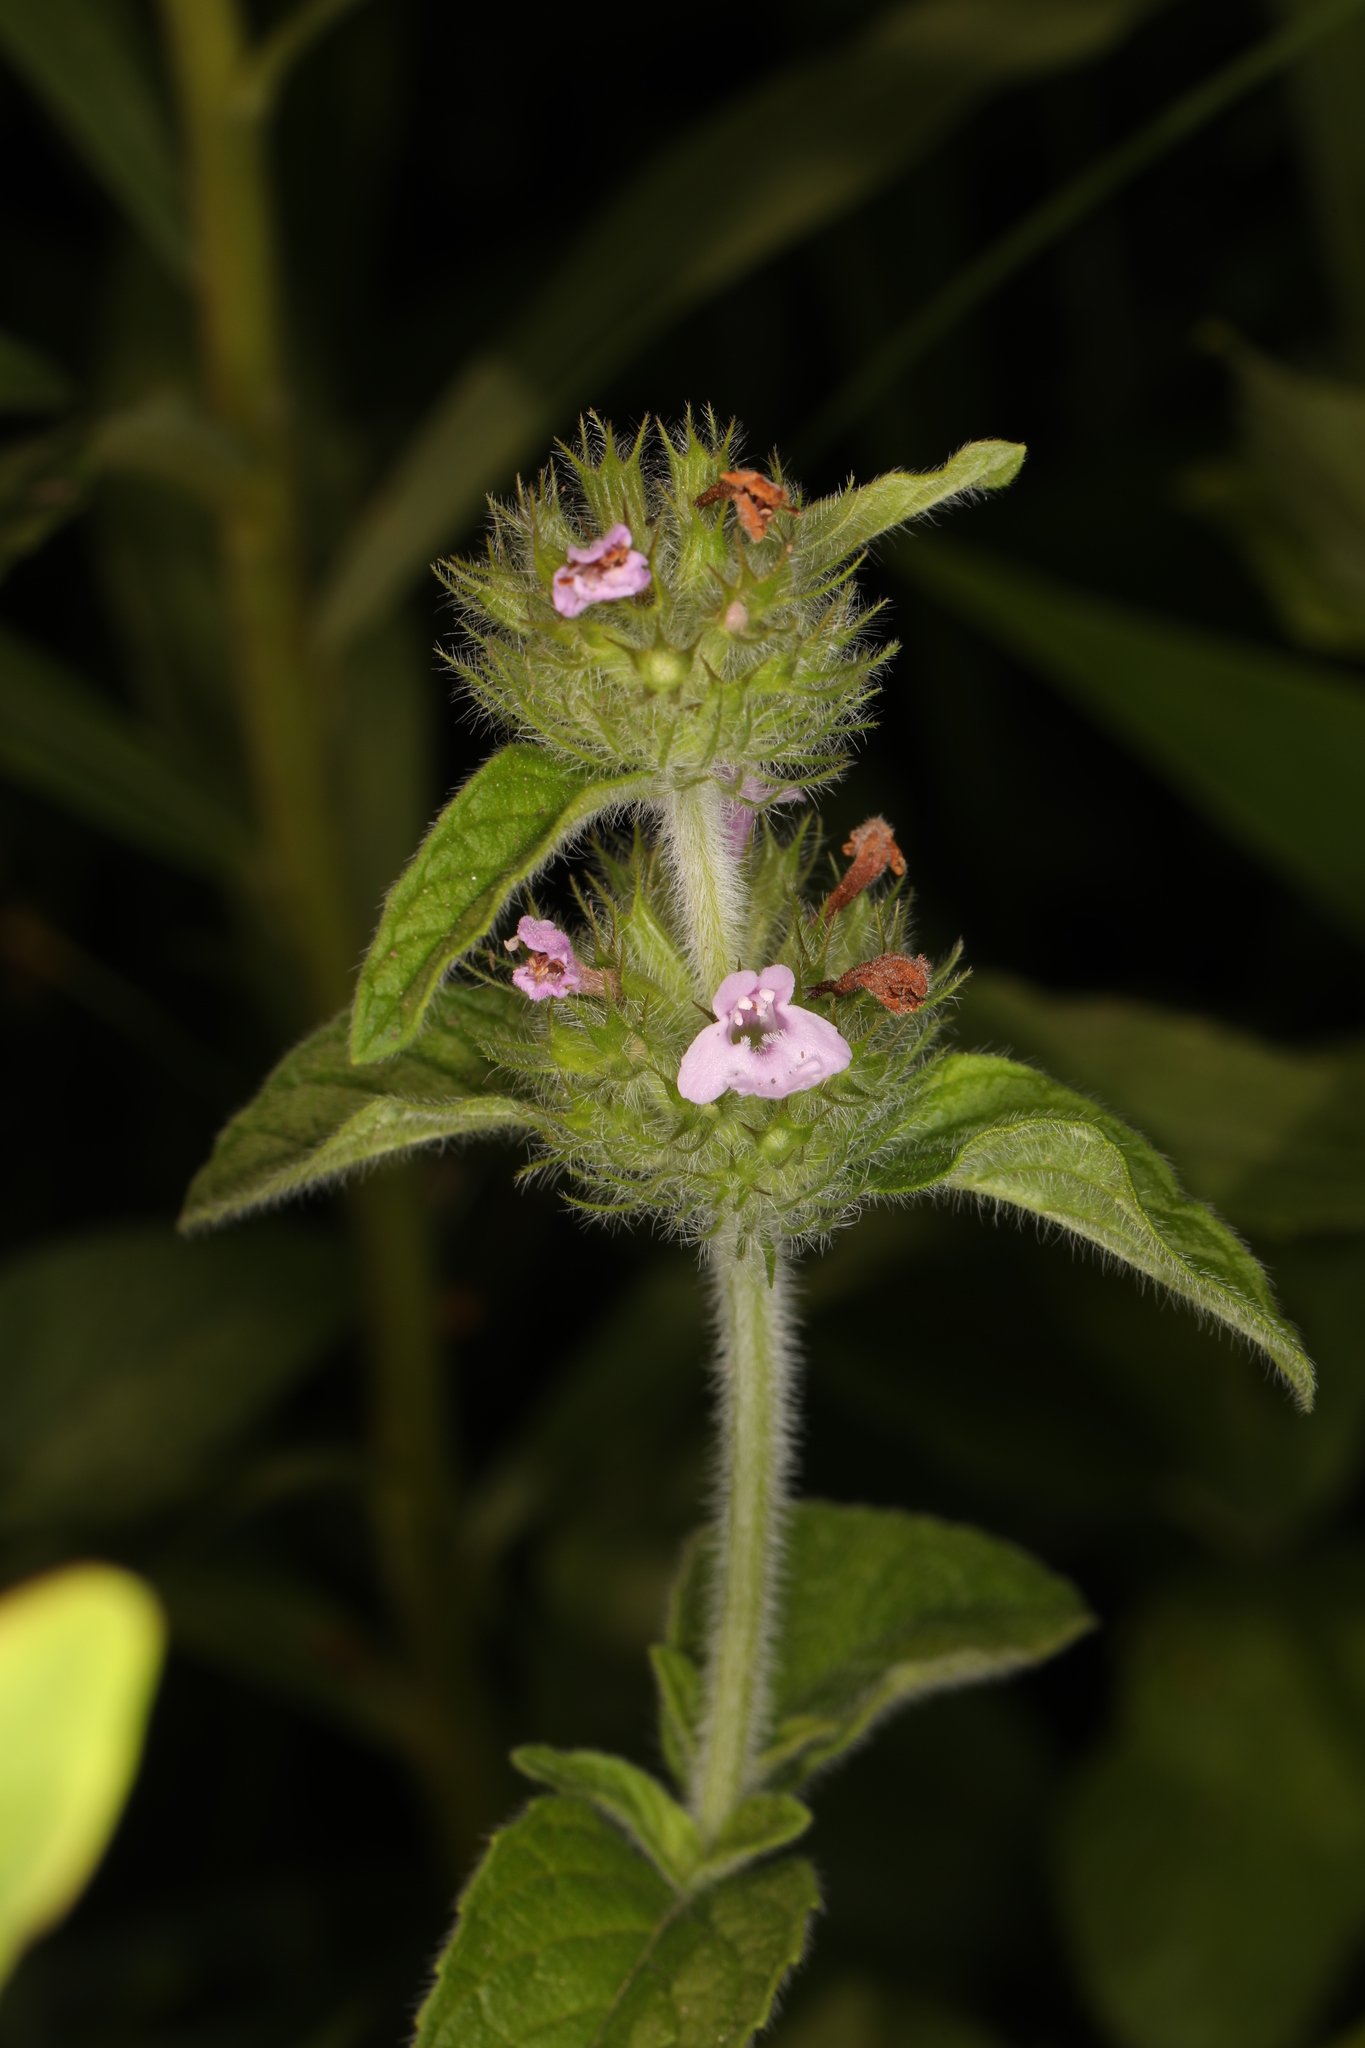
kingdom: Plantae
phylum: Tracheophyta
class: Magnoliopsida
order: Lamiales
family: Lamiaceae
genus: Clinopodium
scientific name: Clinopodium vulgare
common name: Wild basil
